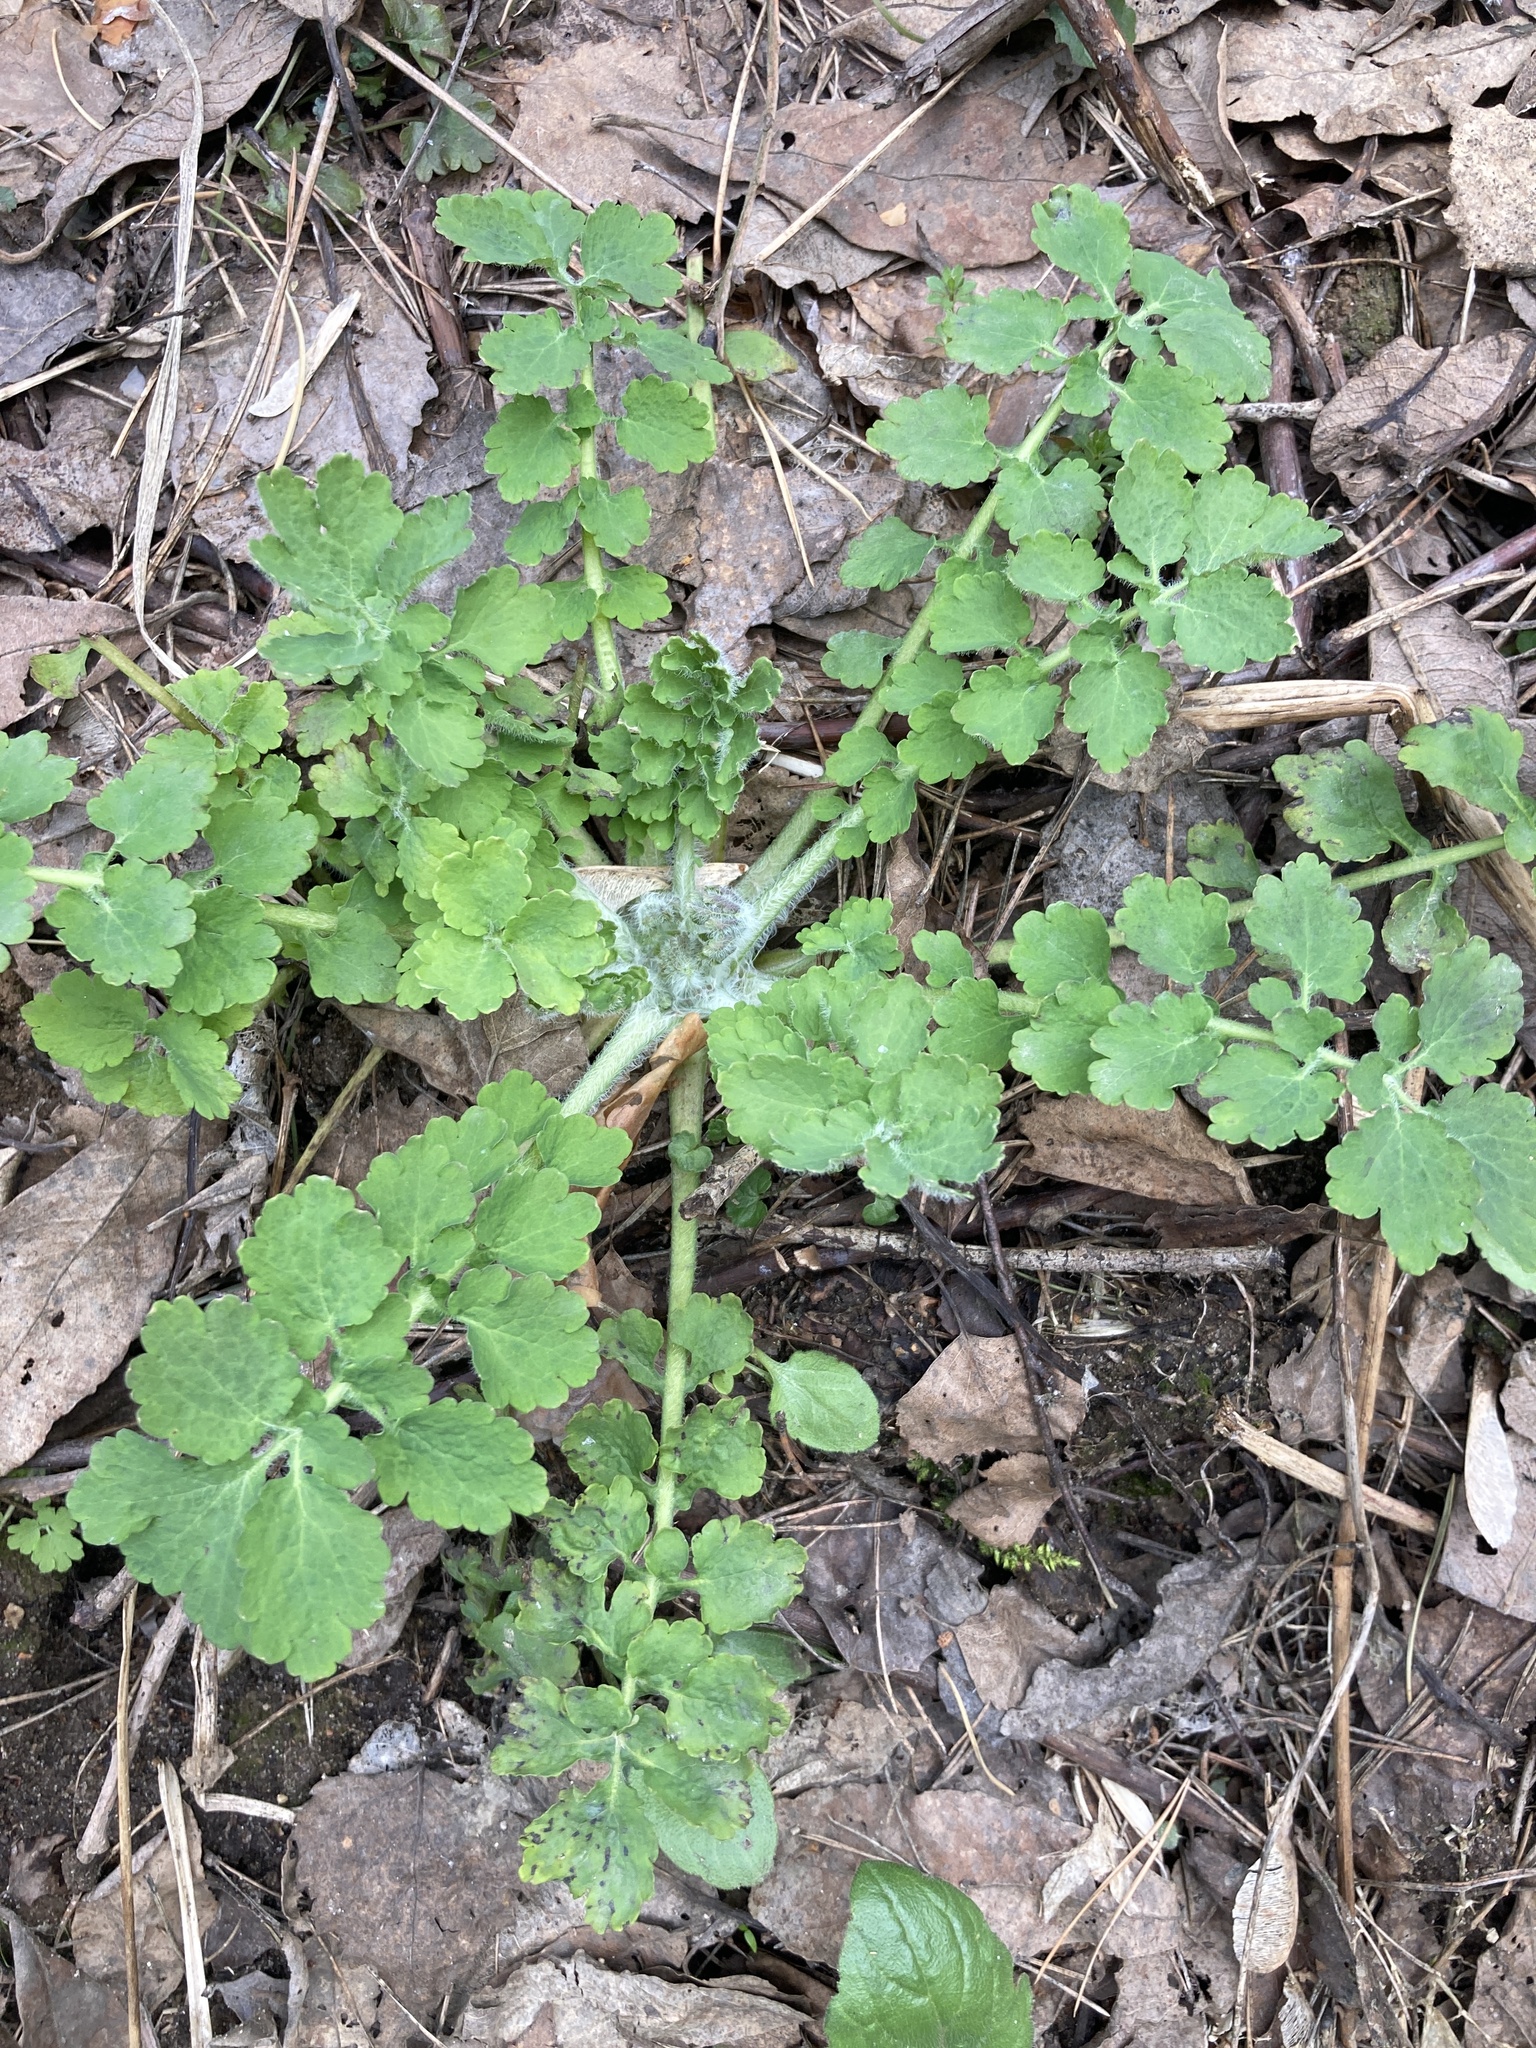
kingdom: Plantae
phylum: Tracheophyta
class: Magnoliopsida
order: Ranunculales
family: Papaveraceae
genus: Chelidonium
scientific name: Chelidonium majus
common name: Greater celandine
